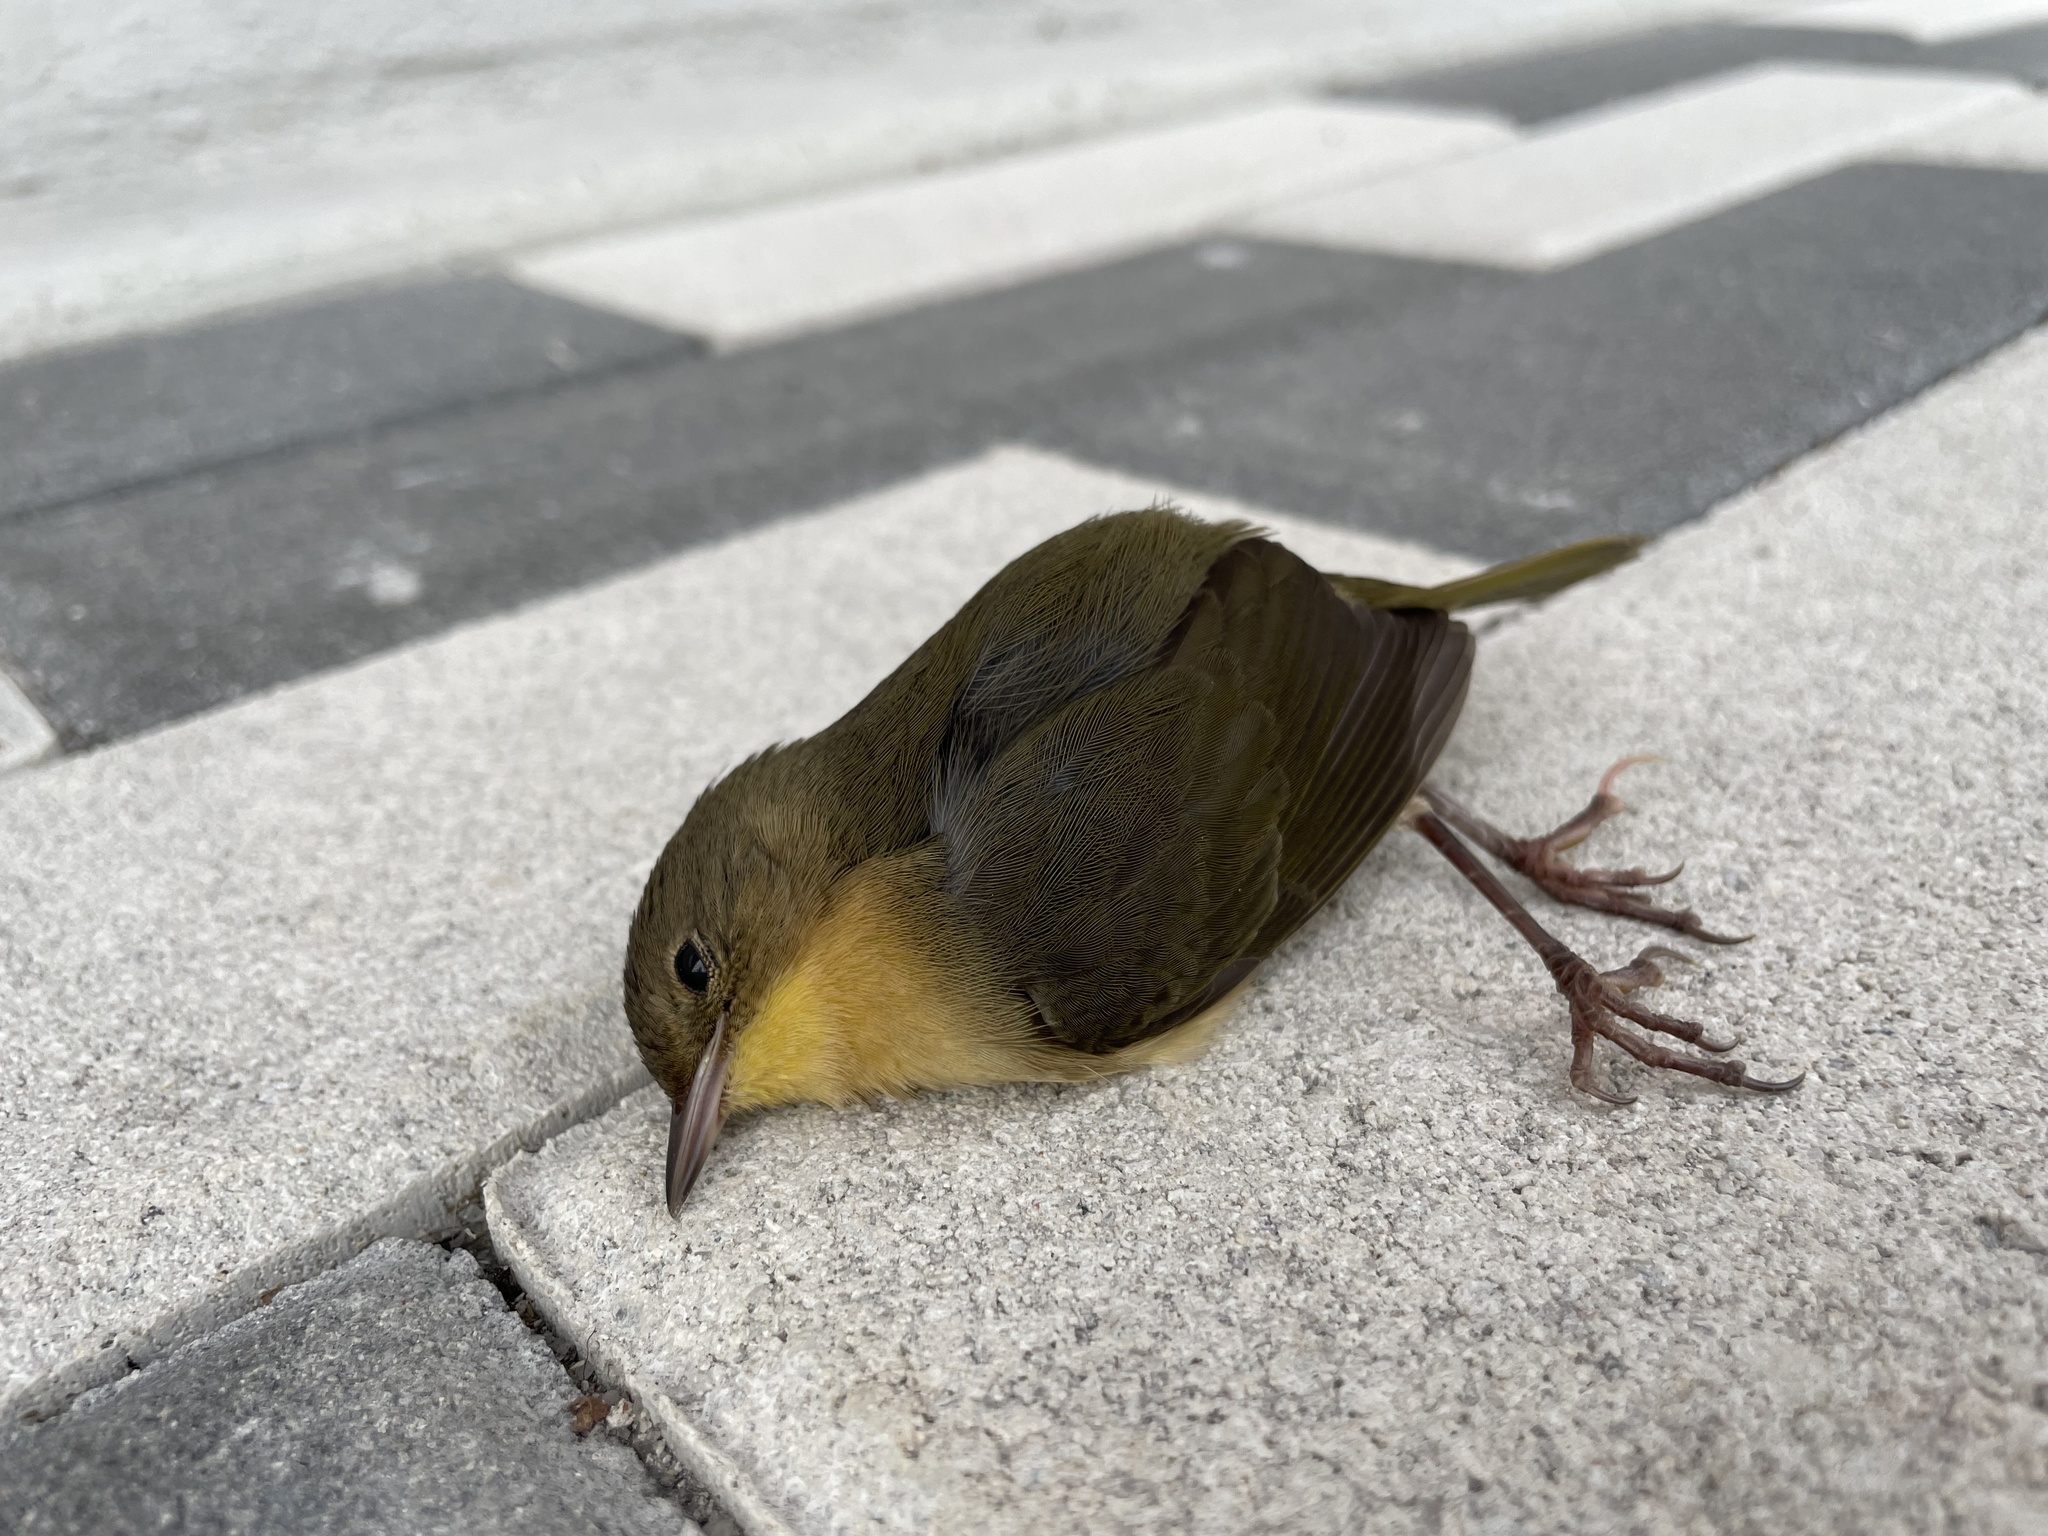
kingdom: Animalia
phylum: Chordata
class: Aves
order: Passeriformes
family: Parulidae
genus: Geothlypis
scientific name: Geothlypis trichas
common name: Common yellowthroat
